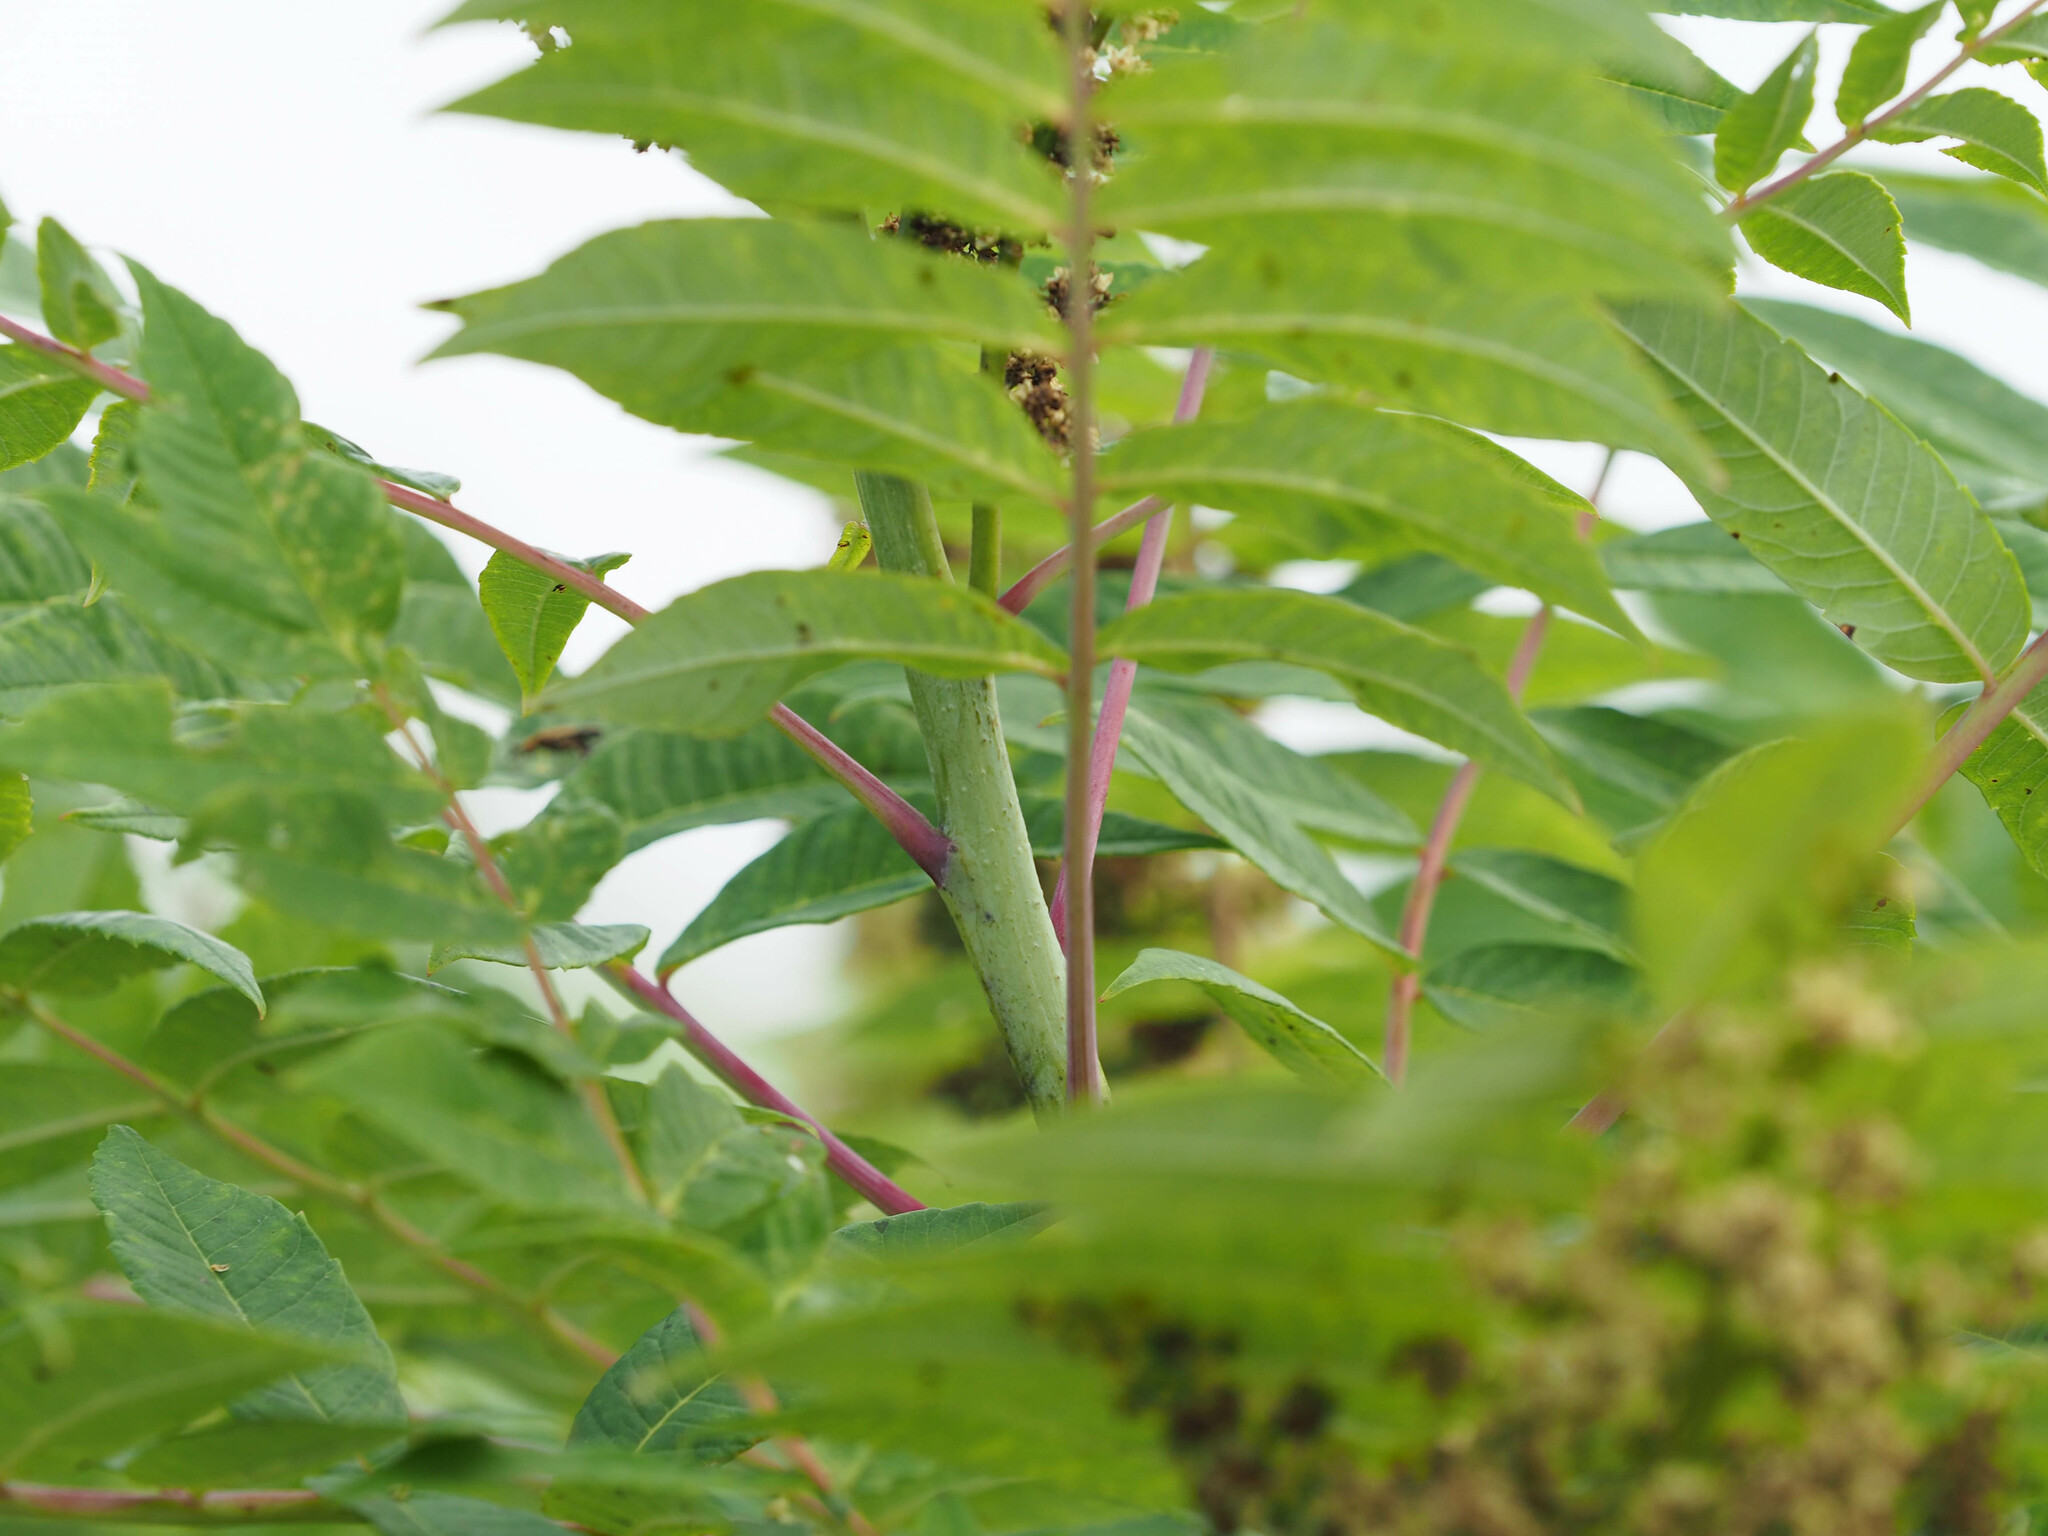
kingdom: Plantae
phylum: Tracheophyta
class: Magnoliopsida
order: Sapindales
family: Anacardiaceae
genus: Rhus
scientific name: Rhus glabra
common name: Scarlet sumac
